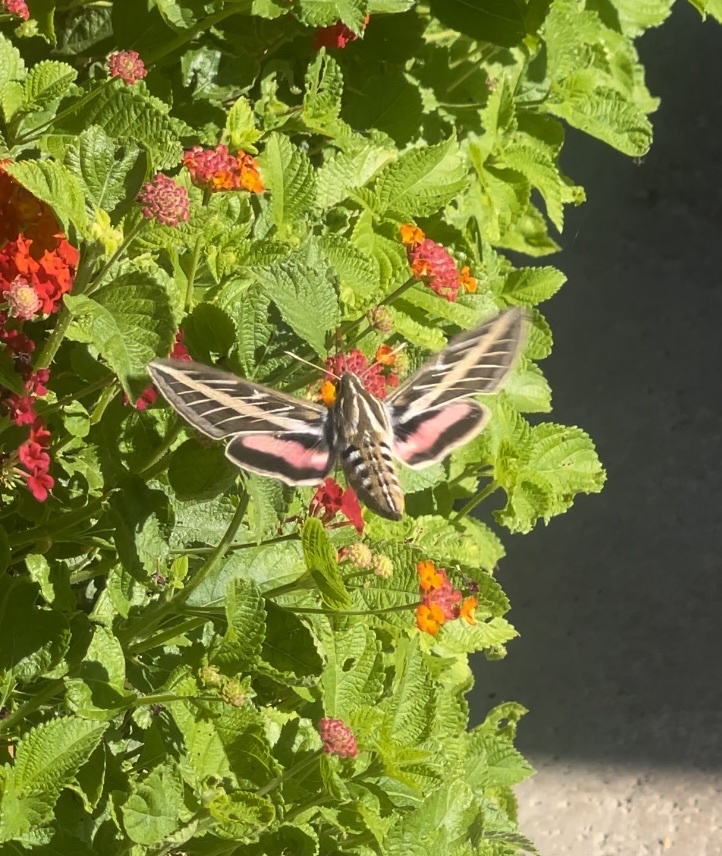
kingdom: Animalia
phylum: Arthropoda
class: Insecta
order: Lepidoptera
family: Sphingidae
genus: Hyles
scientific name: Hyles lineata
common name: White-lined sphinx
